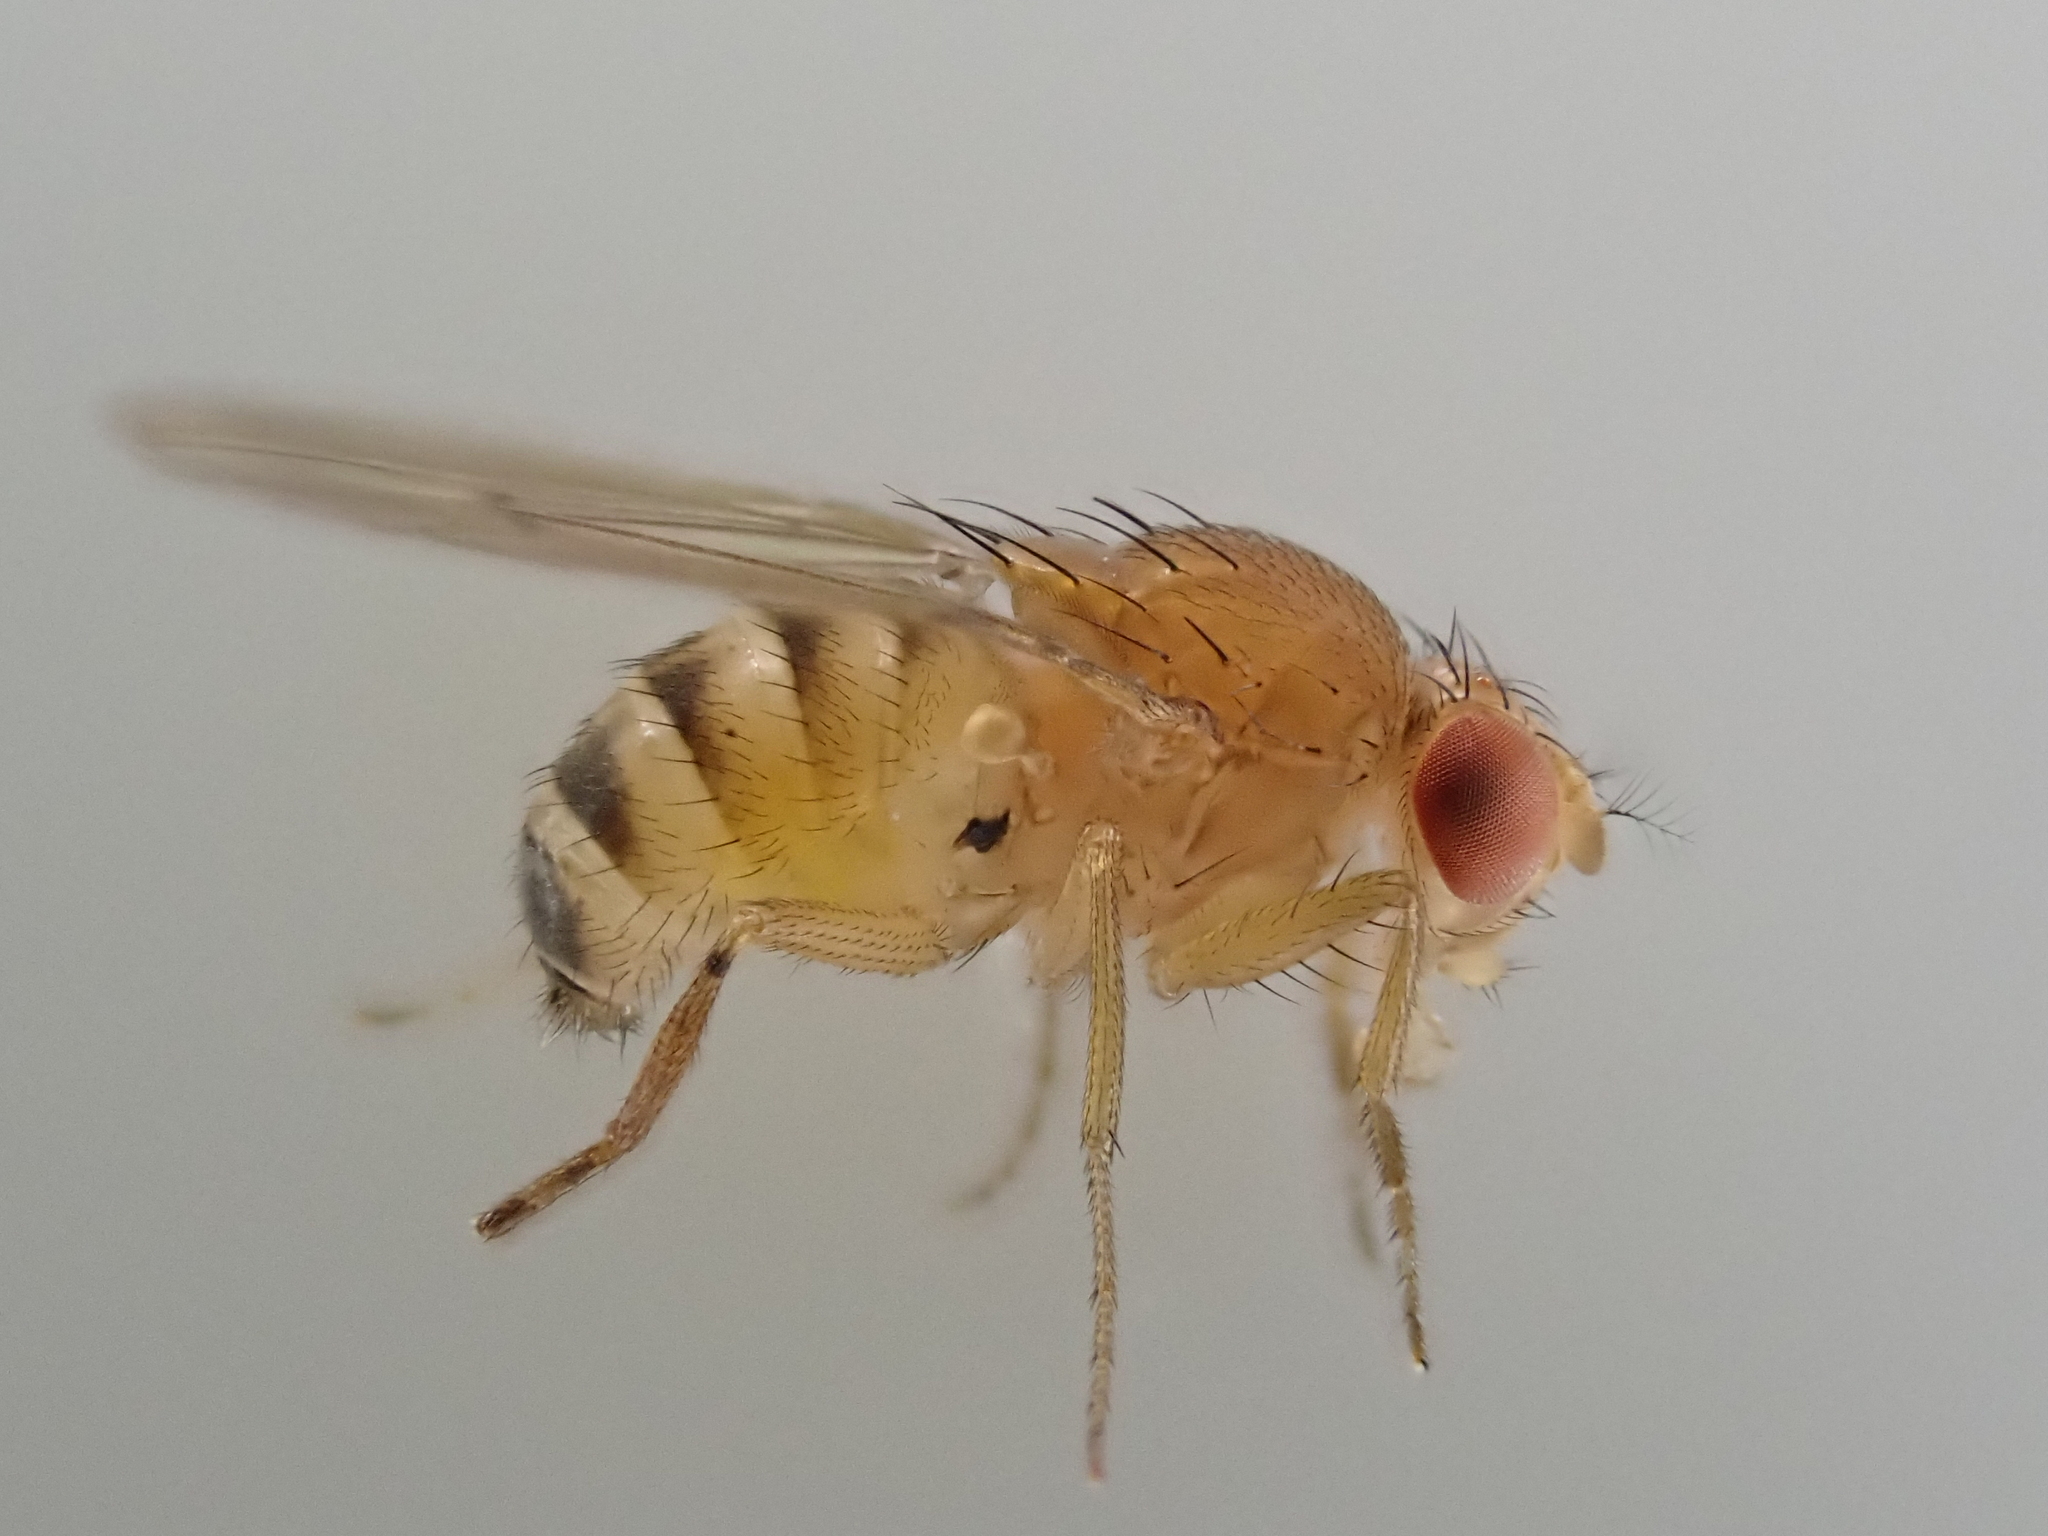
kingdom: Animalia
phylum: Arthropoda
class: Insecta
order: Diptera
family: Drosophilidae
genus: Drosophila
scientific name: Drosophila immigrans
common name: Pomace fly
